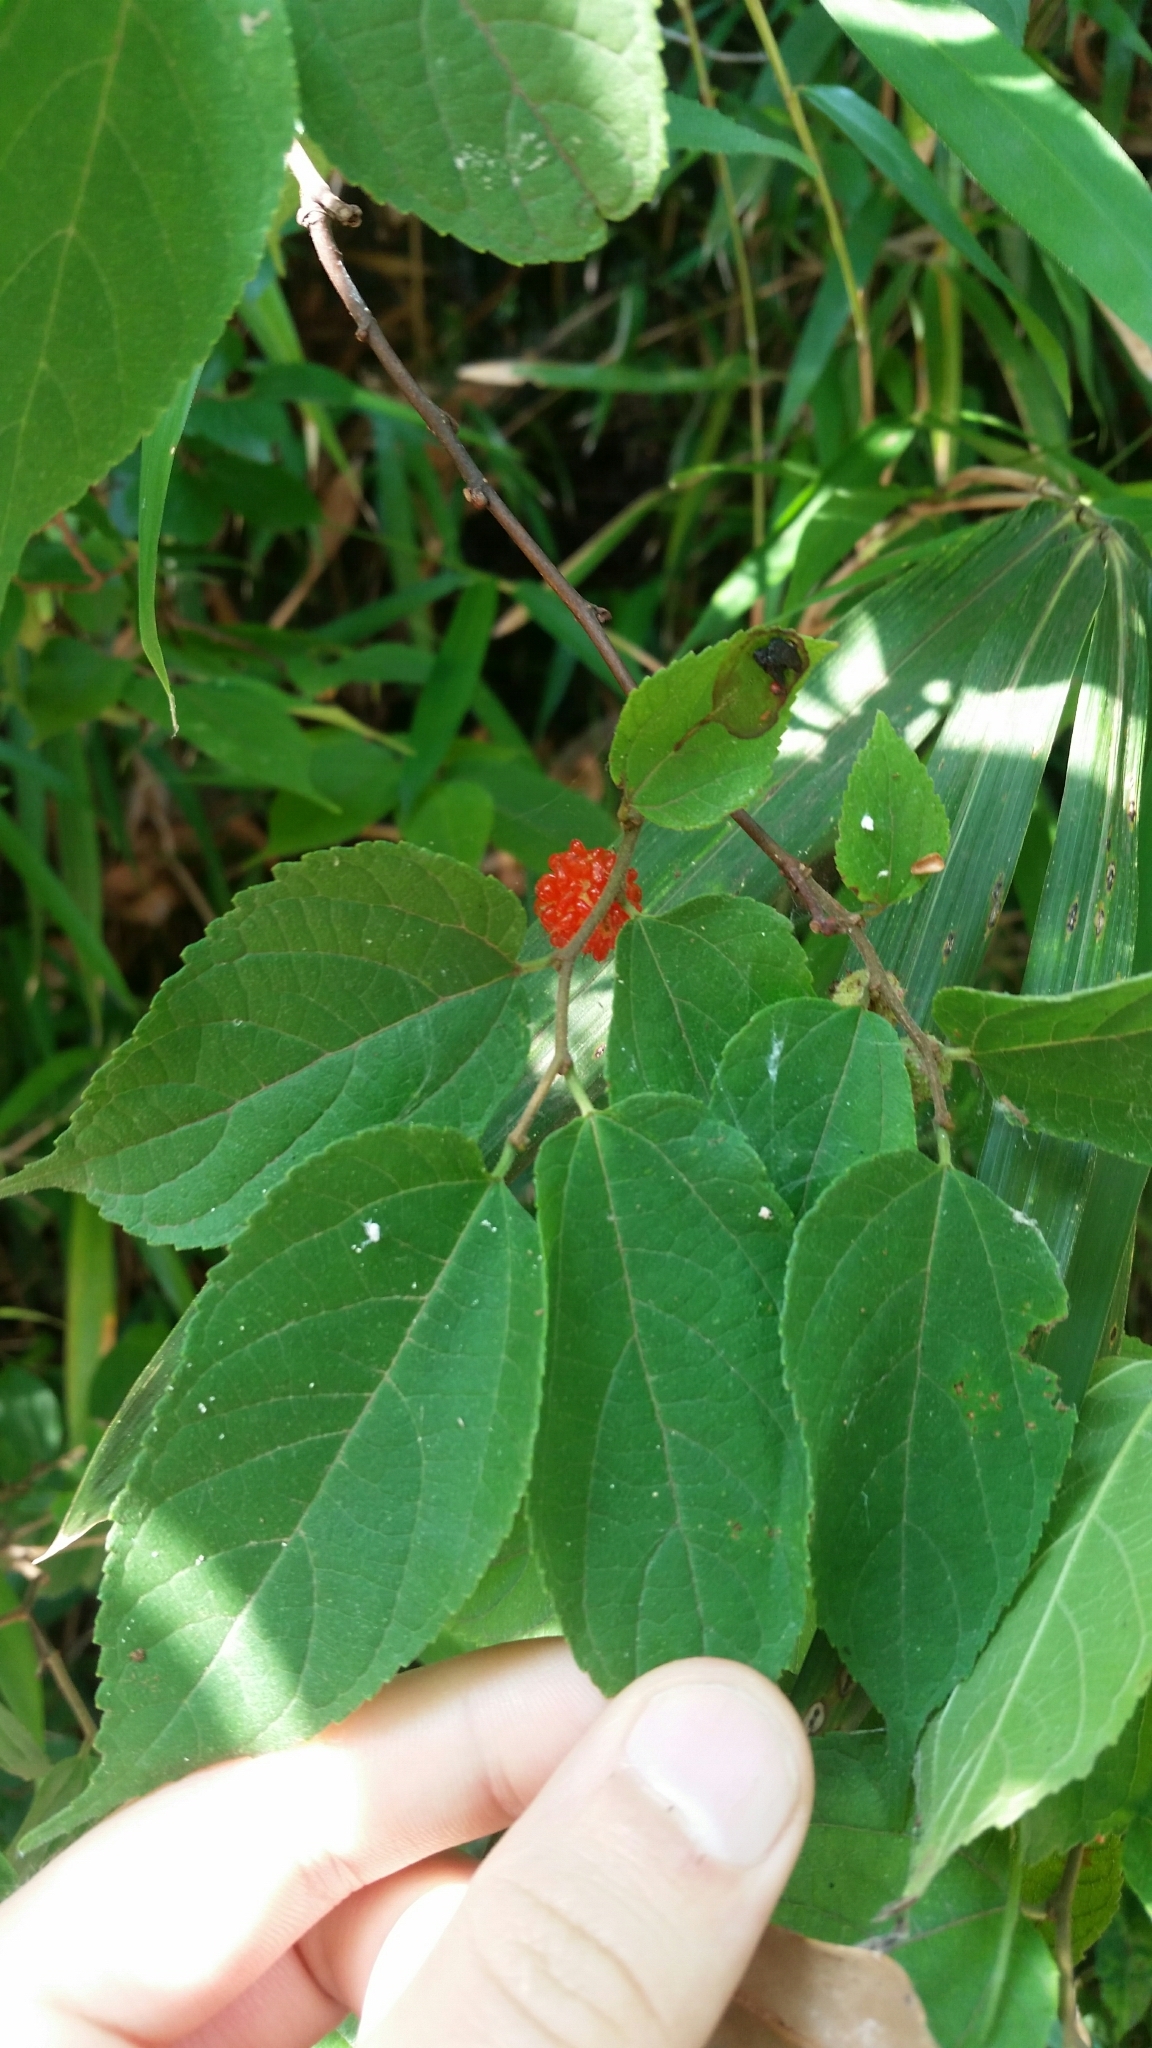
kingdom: Plantae
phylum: Tracheophyta
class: Magnoliopsida
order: Rosales
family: Moraceae
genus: Morus
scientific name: Morus indica
